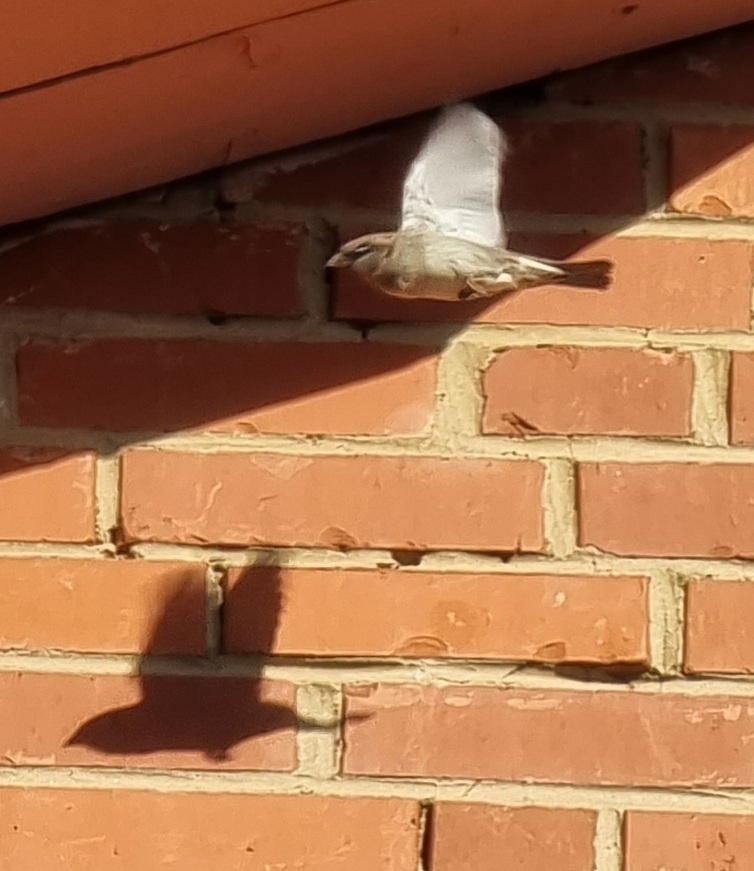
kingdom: Animalia
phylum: Chordata
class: Aves
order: Passeriformes
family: Passeridae
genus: Passer
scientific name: Passer domesticus
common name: House sparrow
